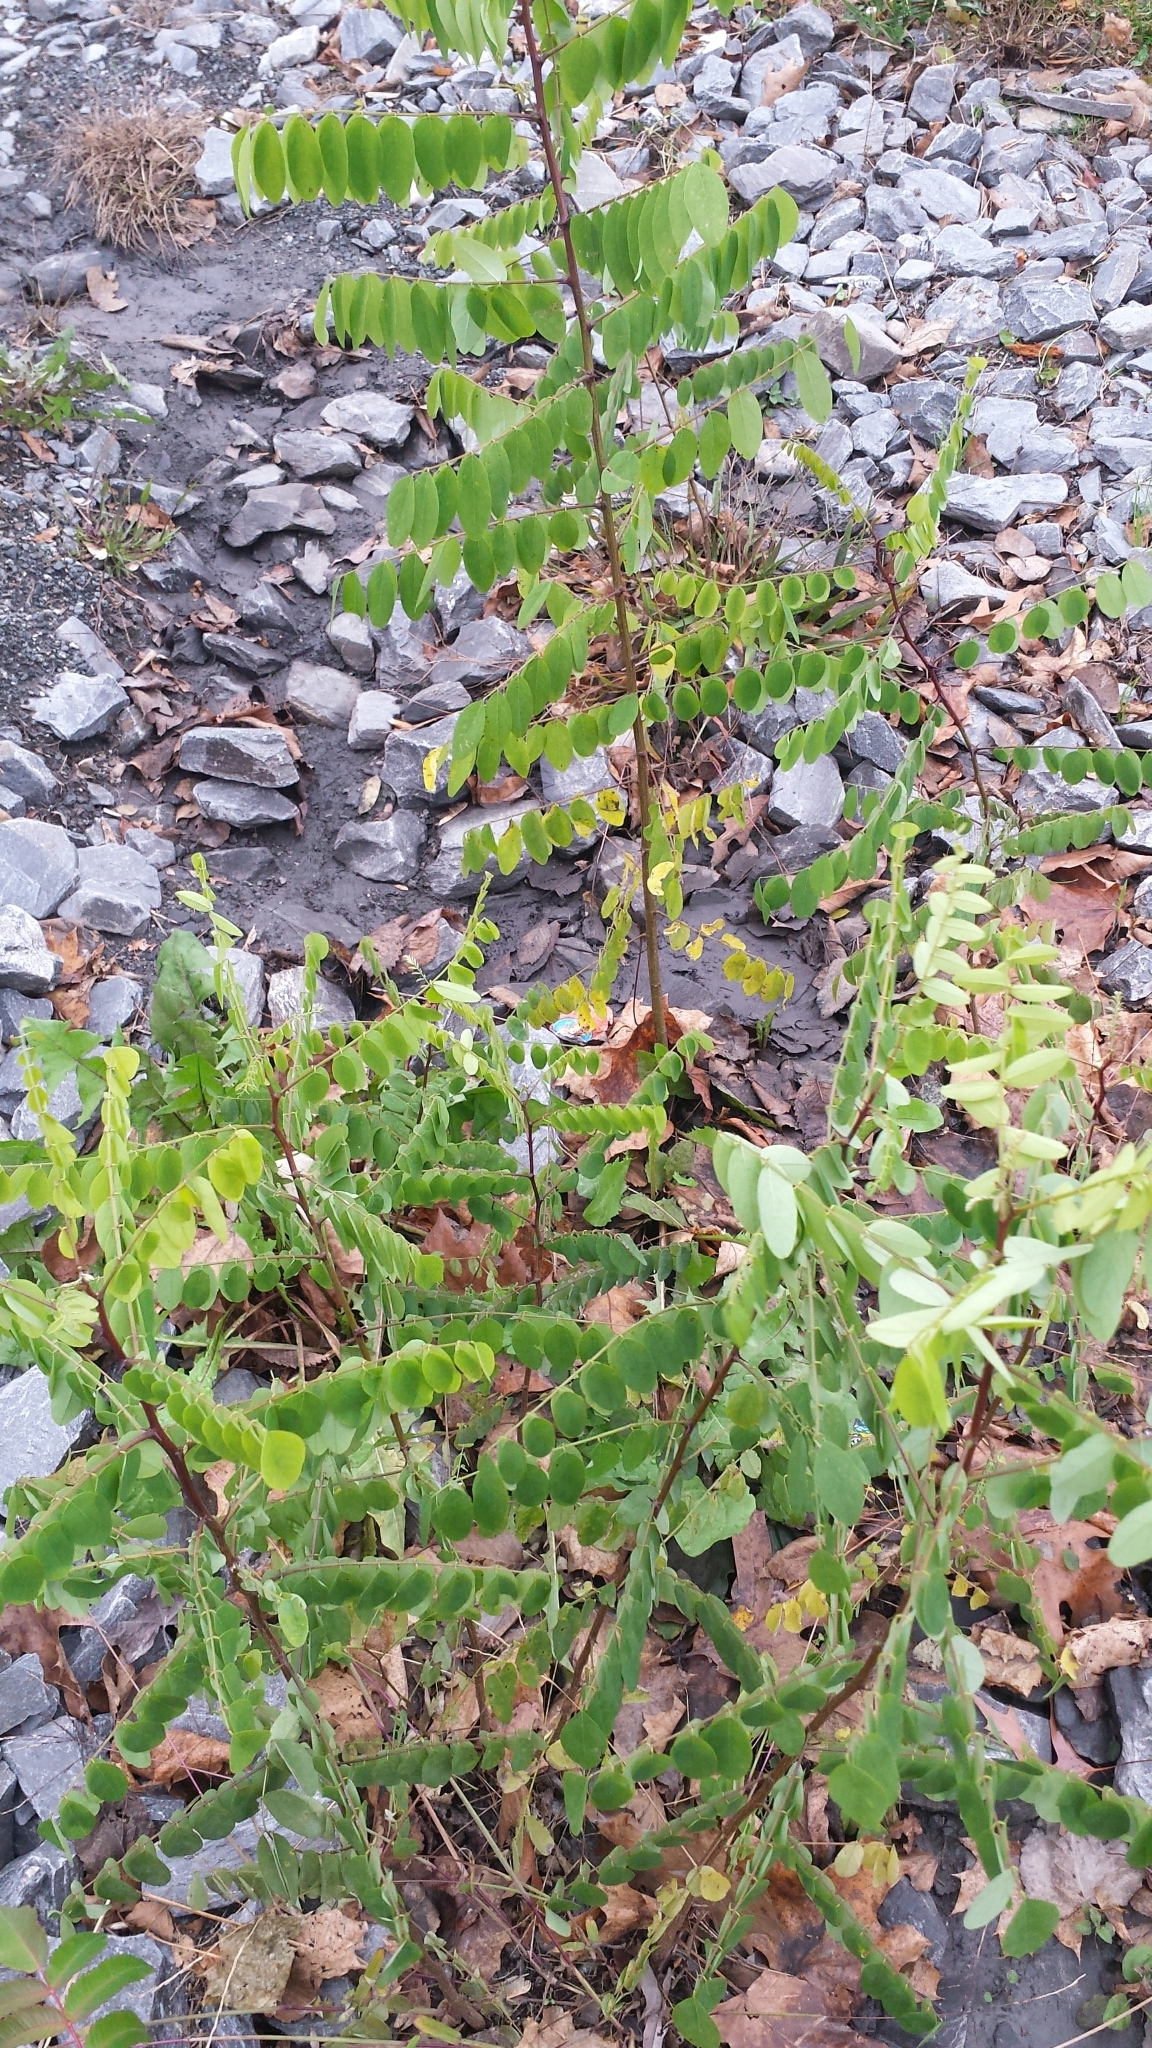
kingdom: Plantae
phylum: Tracheophyta
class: Magnoliopsida
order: Fabales
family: Fabaceae
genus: Robinia
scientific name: Robinia pseudoacacia
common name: Black locust
